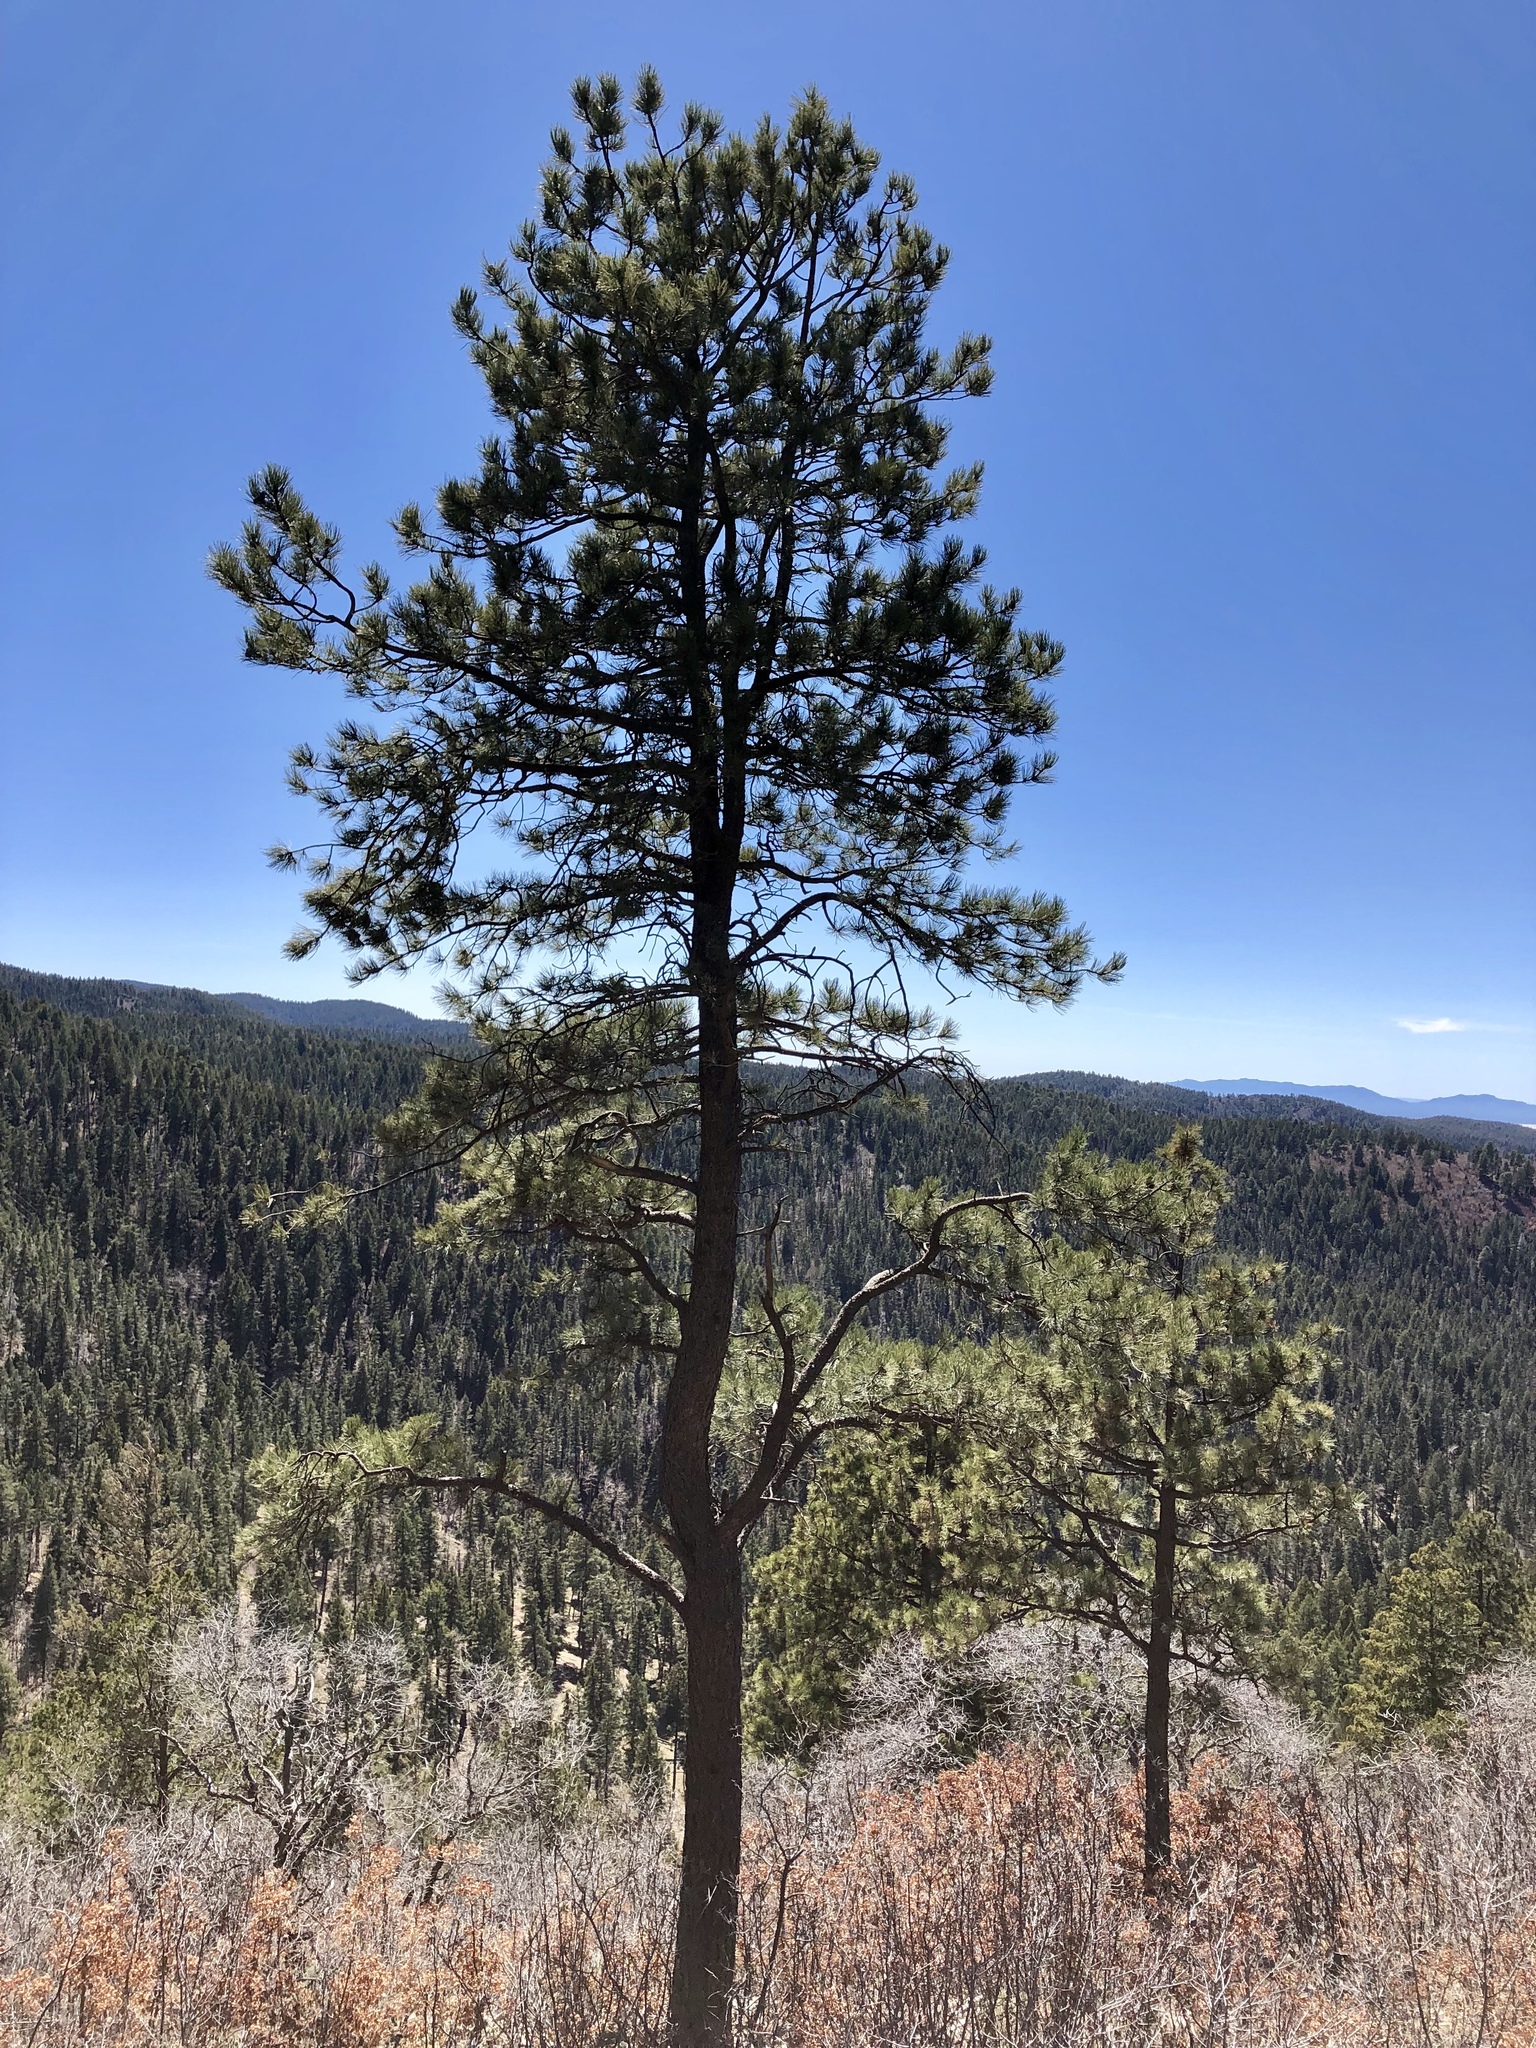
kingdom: Plantae
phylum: Tracheophyta
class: Pinopsida
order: Pinales
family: Pinaceae
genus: Pinus
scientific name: Pinus ponderosa
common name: Western yellow-pine
